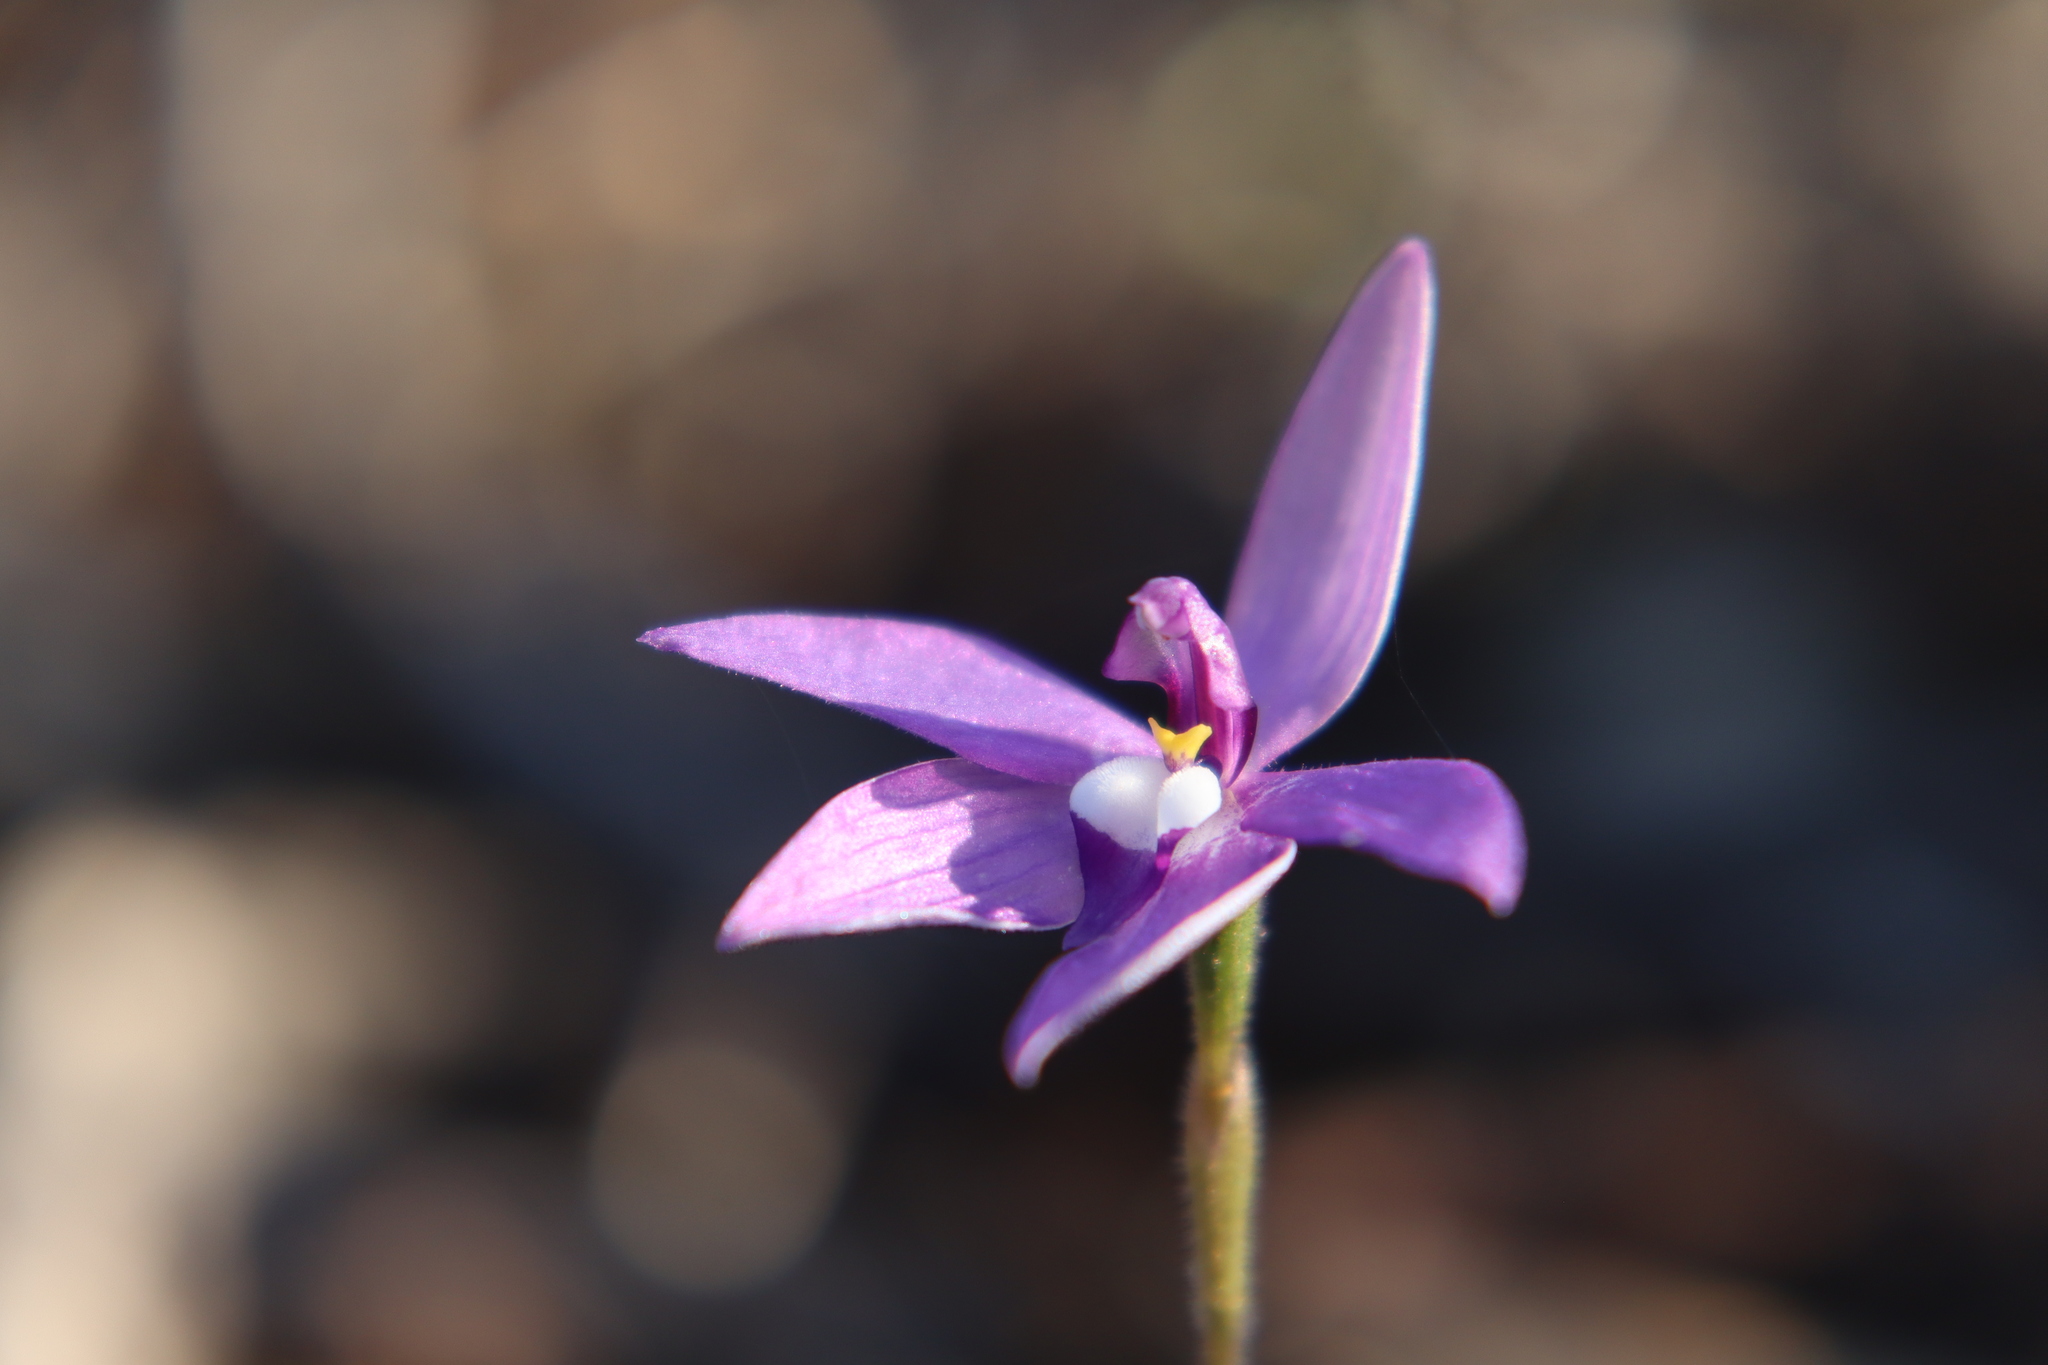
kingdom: Plantae
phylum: Tracheophyta
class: Liliopsida
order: Asparagales
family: Orchidaceae
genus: Caladenia
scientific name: Caladenia major
